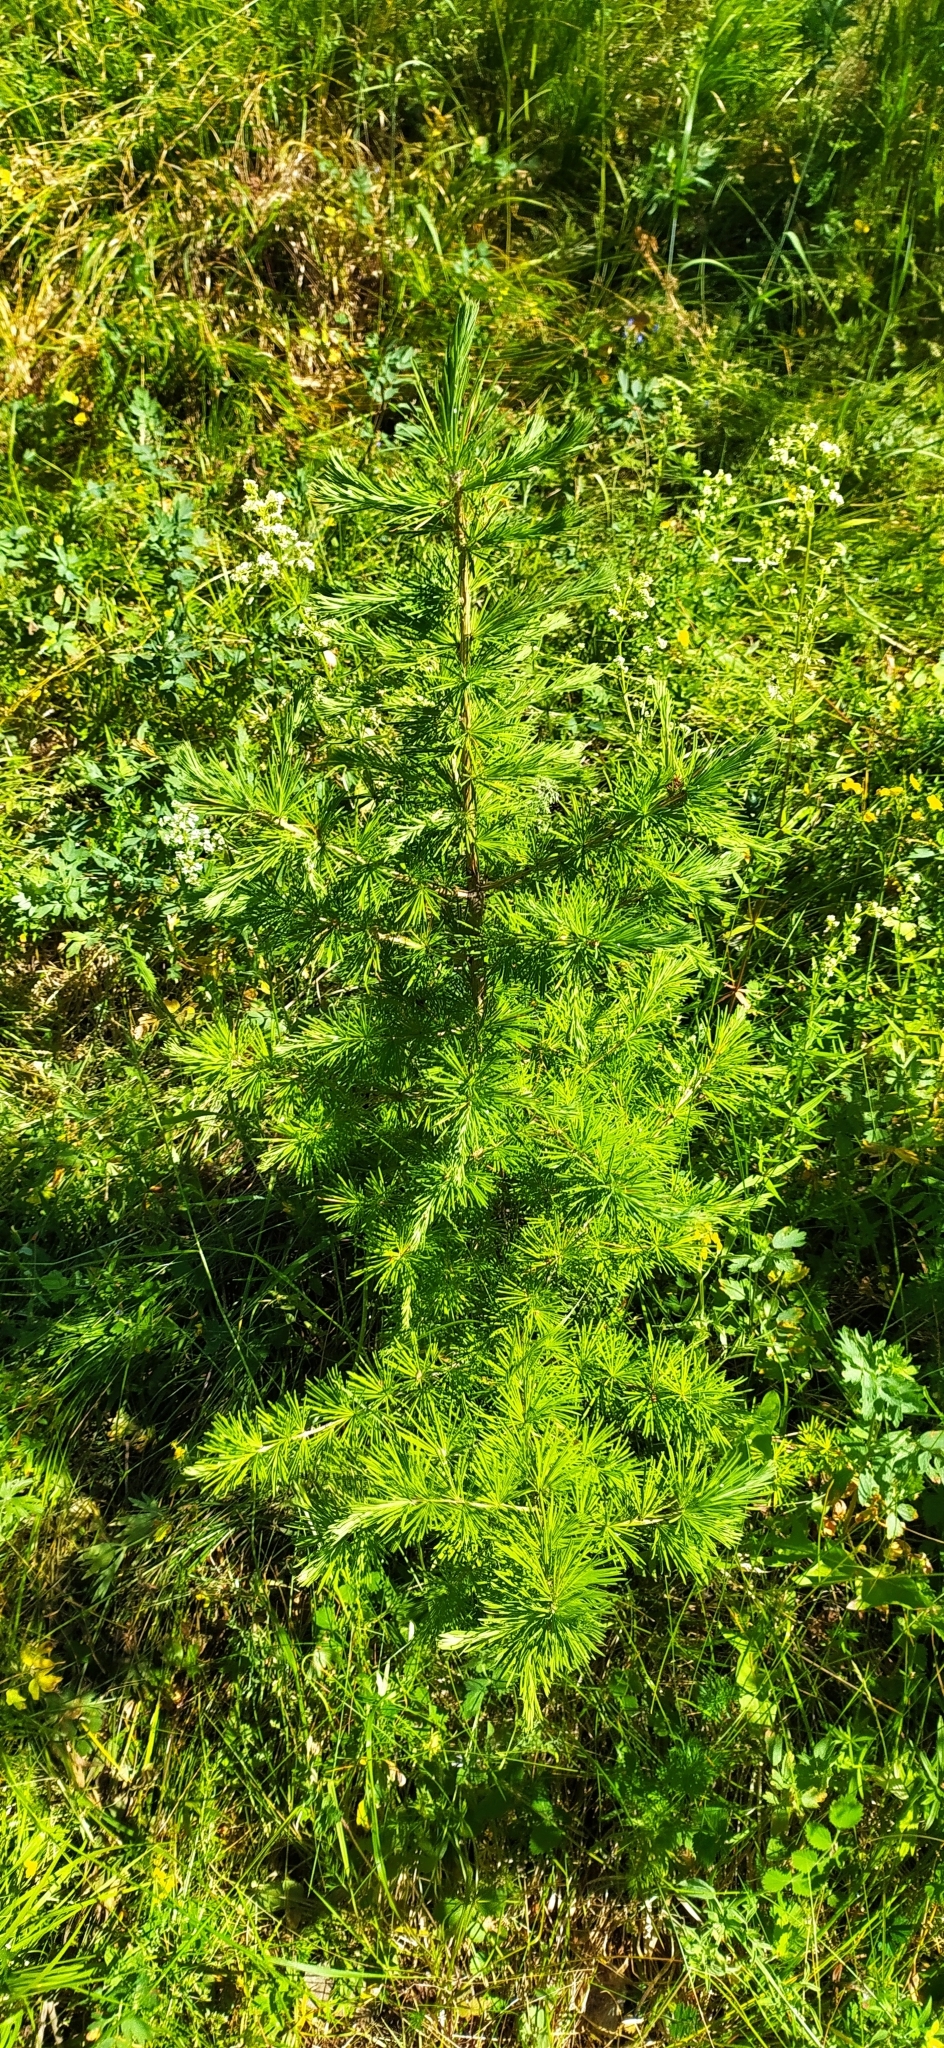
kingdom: Plantae
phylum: Tracheophyta
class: Pinopsida
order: Pinales
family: Pinaceae
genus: Larix
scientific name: Larix sibirica
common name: Siberian larch
